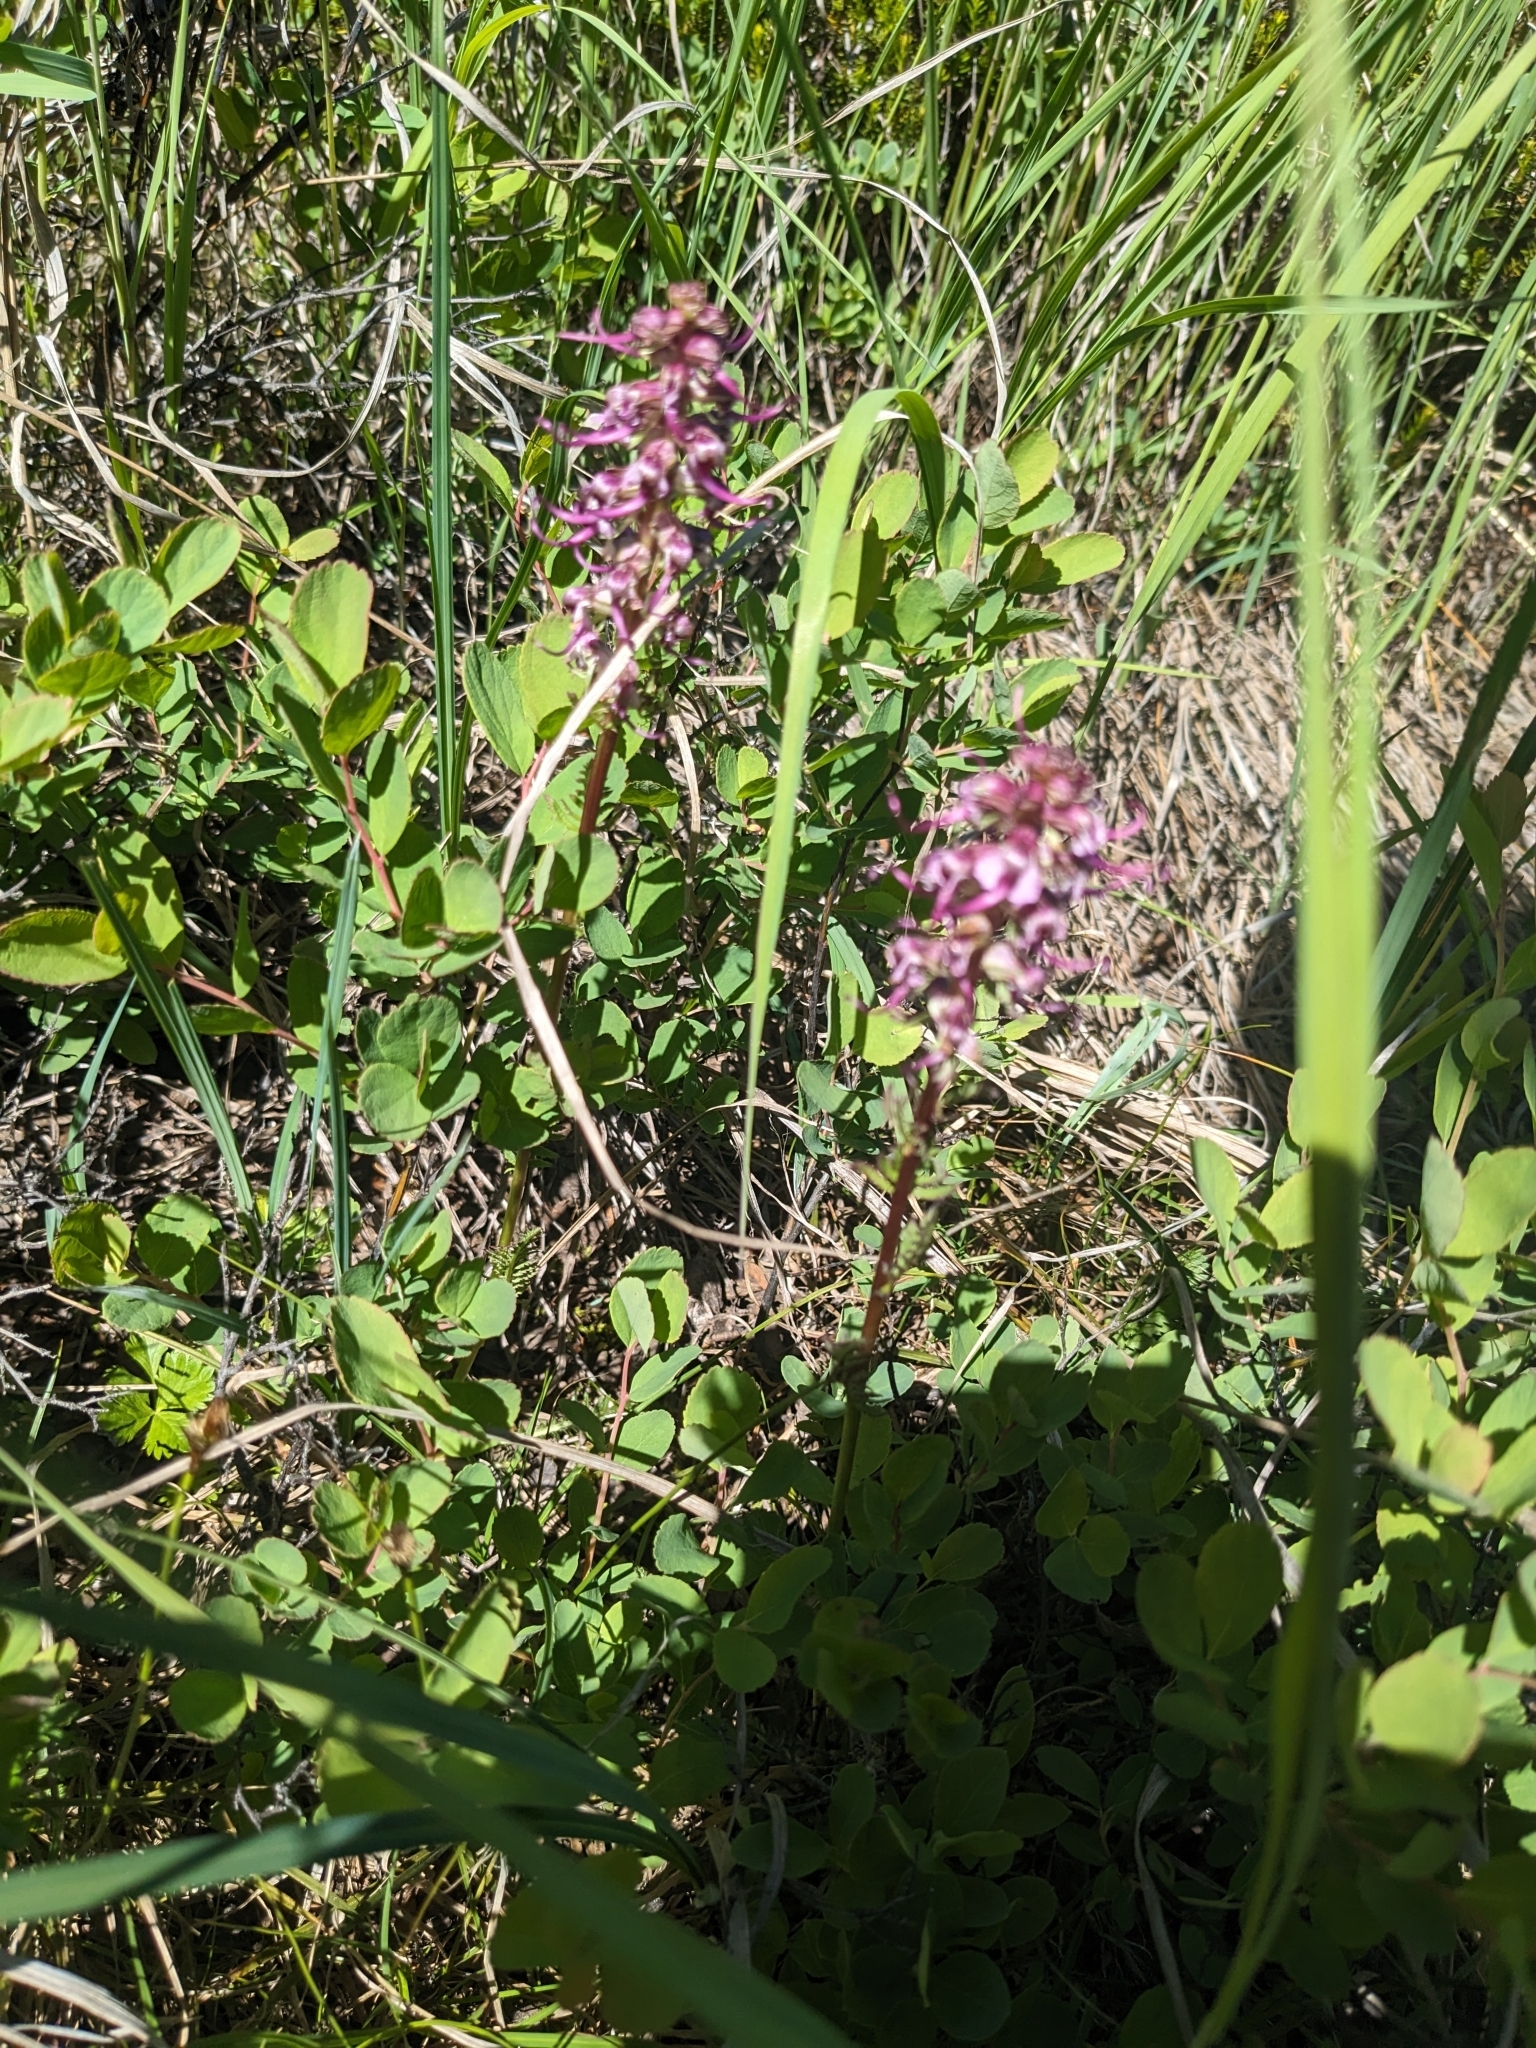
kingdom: Plantae
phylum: Tracheophyta
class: Magnoliopsida
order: Lamiales
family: Orobanchaceae
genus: Pedicularis
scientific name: Pedicularis groenlandica
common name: Elephant's-head
